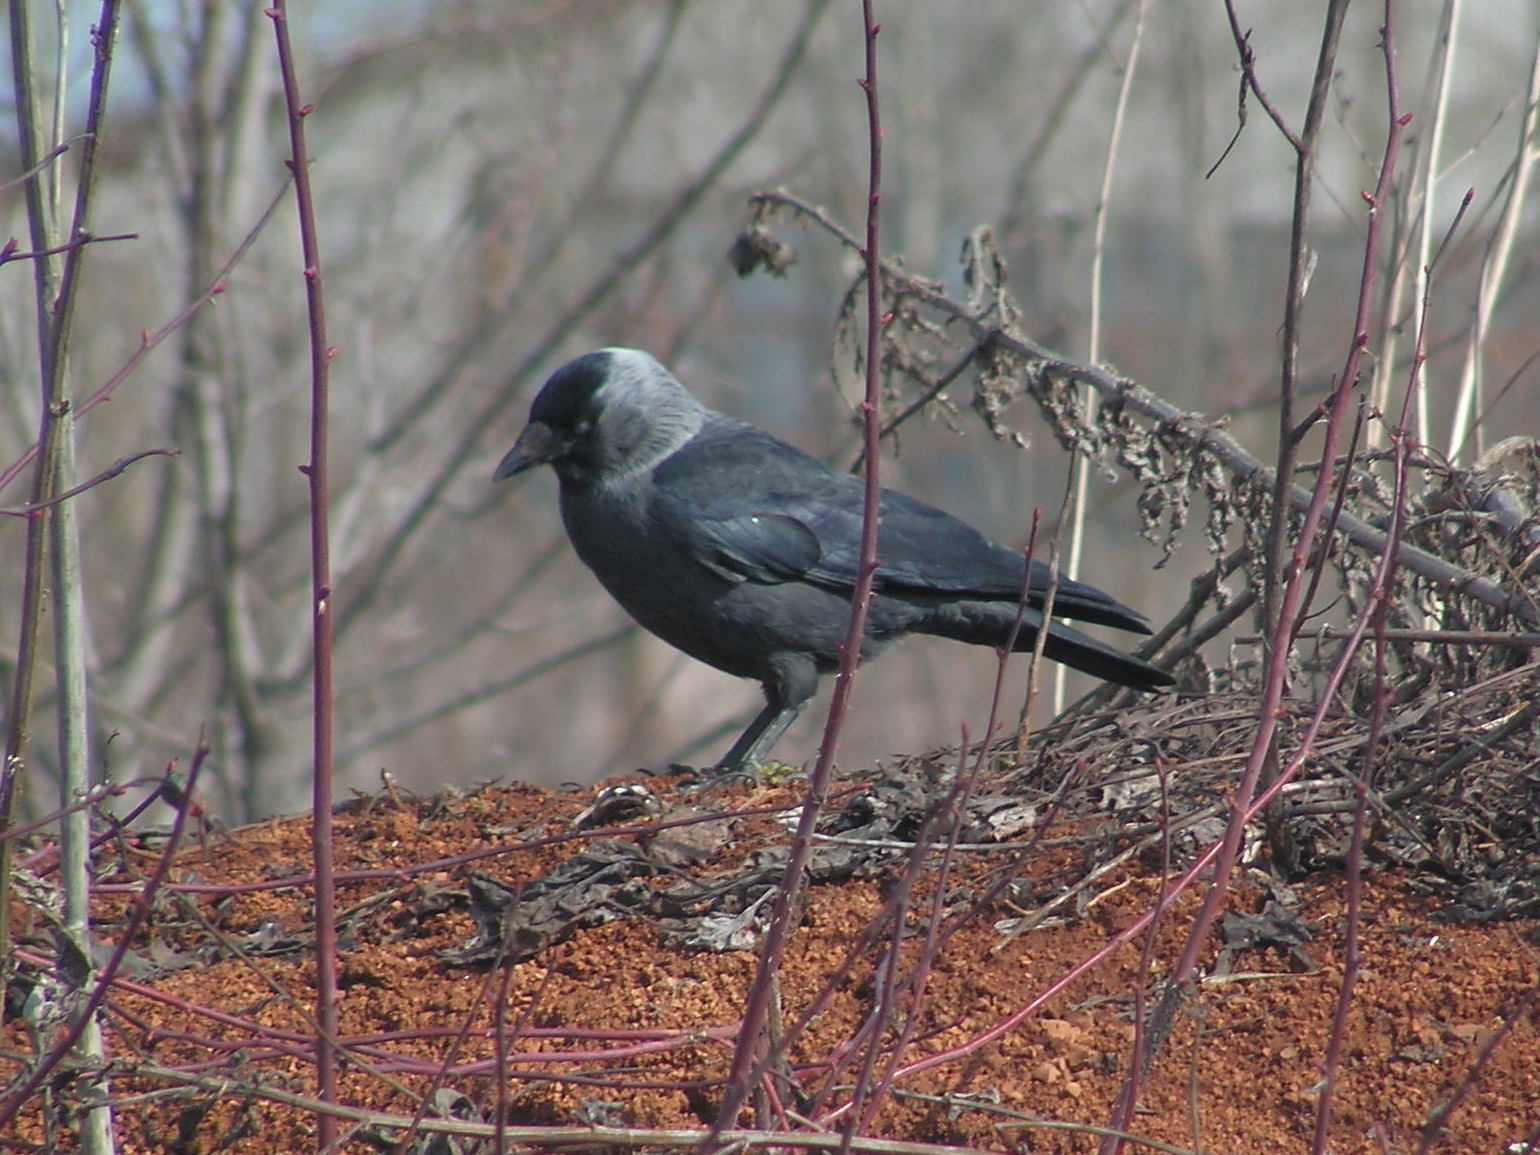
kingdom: Animalia
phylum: Chordata
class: Aves
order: Passeriformes
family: Corvidae
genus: Coloeus
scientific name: Coloeus monedula
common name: Western jackdaw
